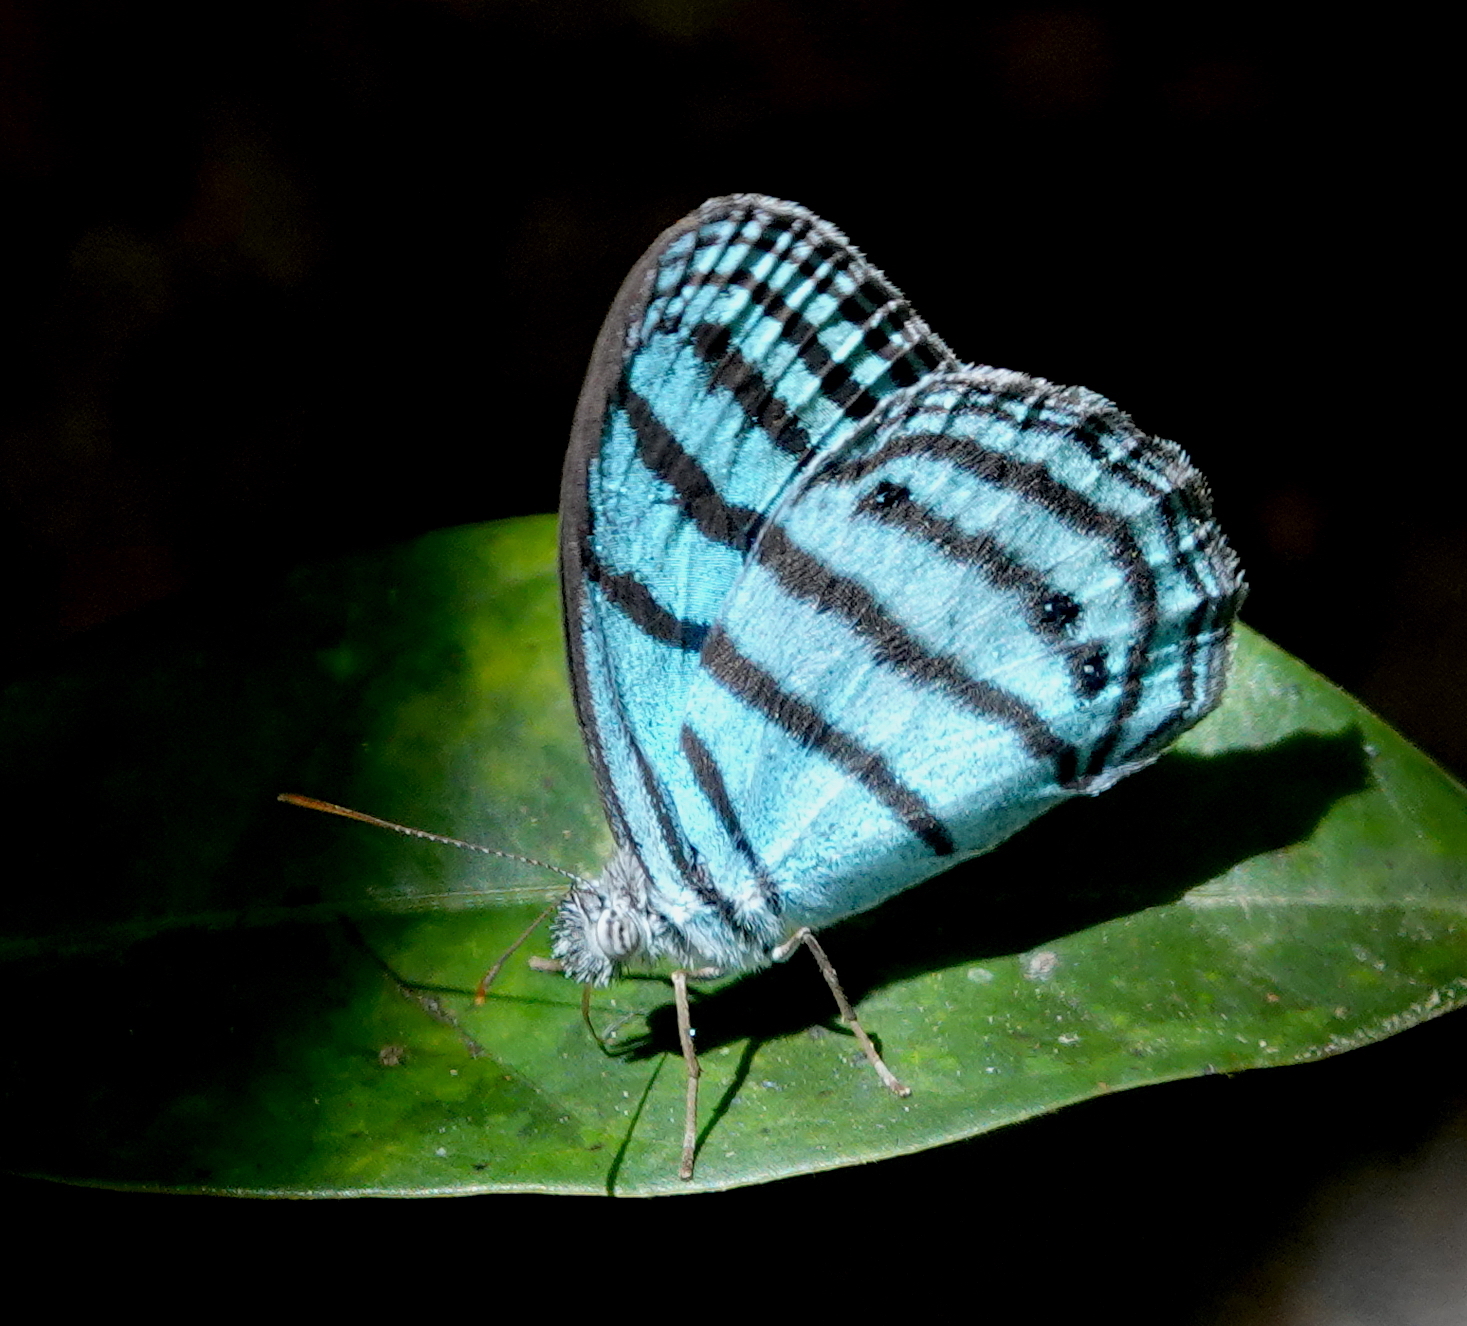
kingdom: Animalia
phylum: Arthropoda
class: Insecta
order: Lepidoptera
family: Nymphalidae
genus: Cepheuptychia
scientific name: Cepheuptychia cephus
